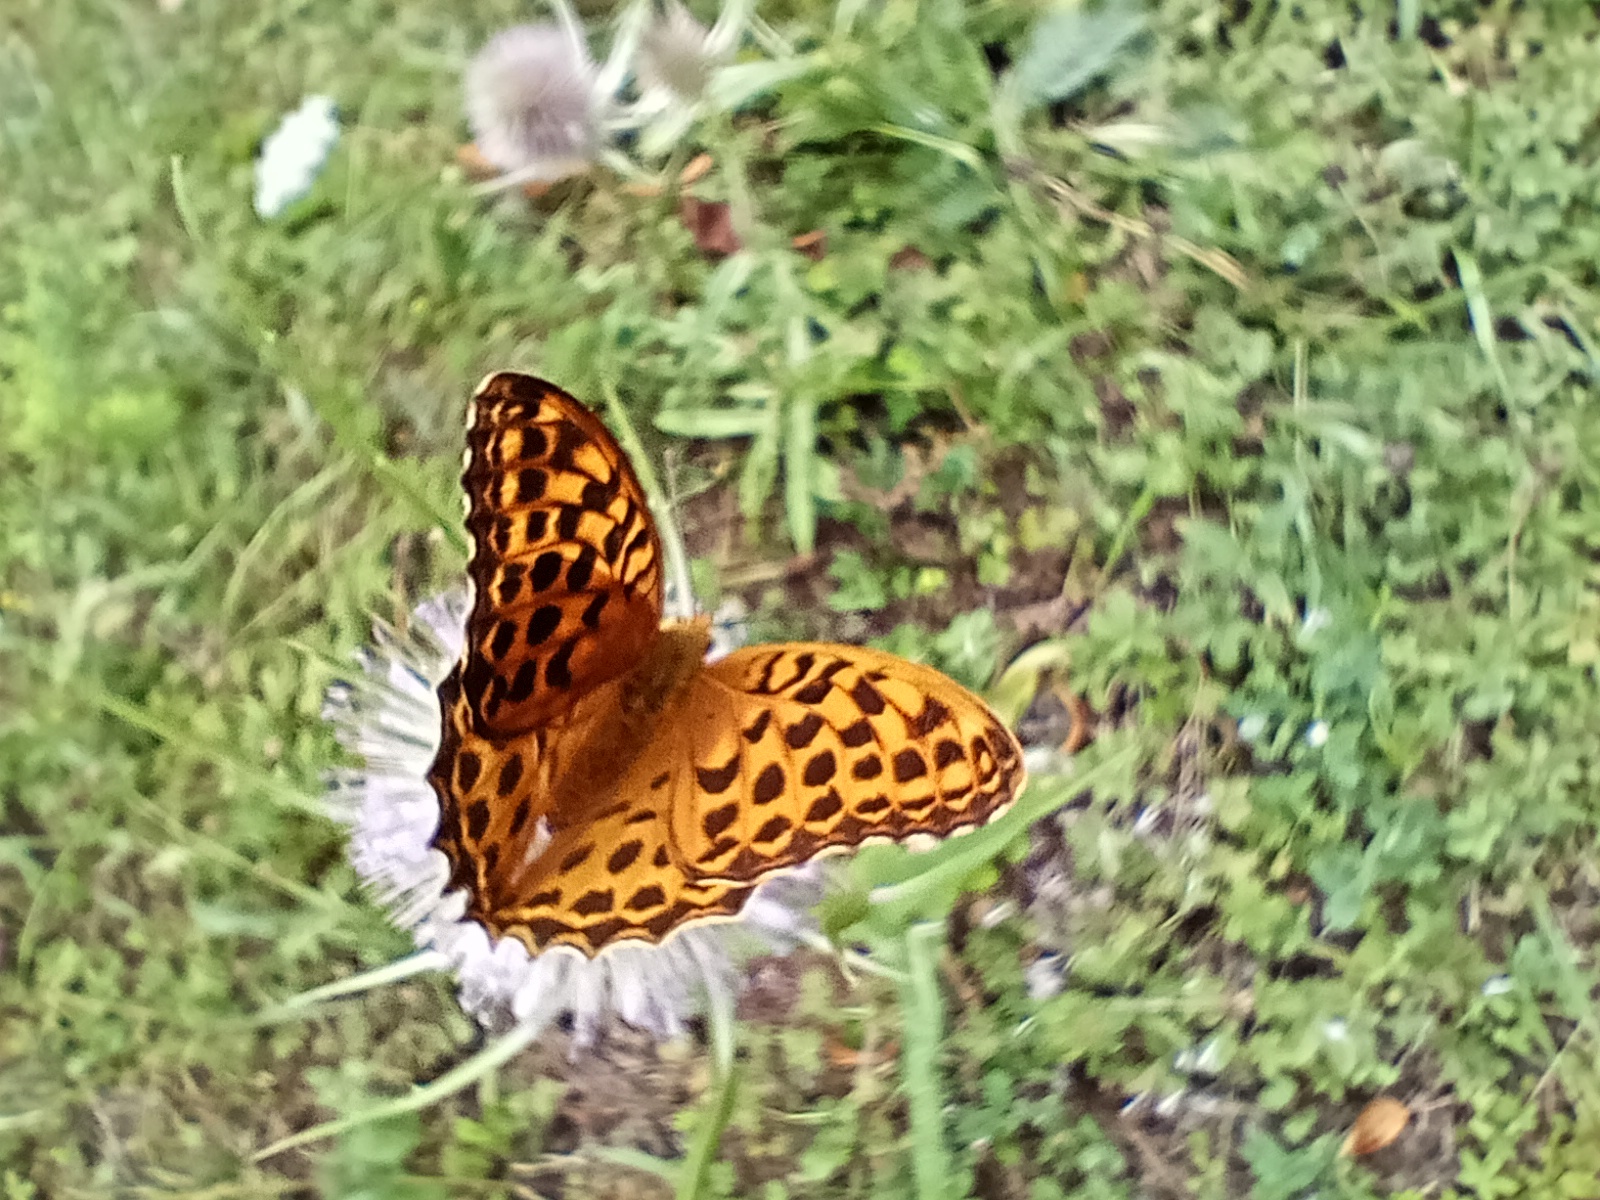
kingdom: Animalia
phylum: Arthropoda
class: Insecta
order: Lepidoptera
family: Nymphalidae
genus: Argynnis
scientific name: Argynnis paphia
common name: Silver-washed fritillary
